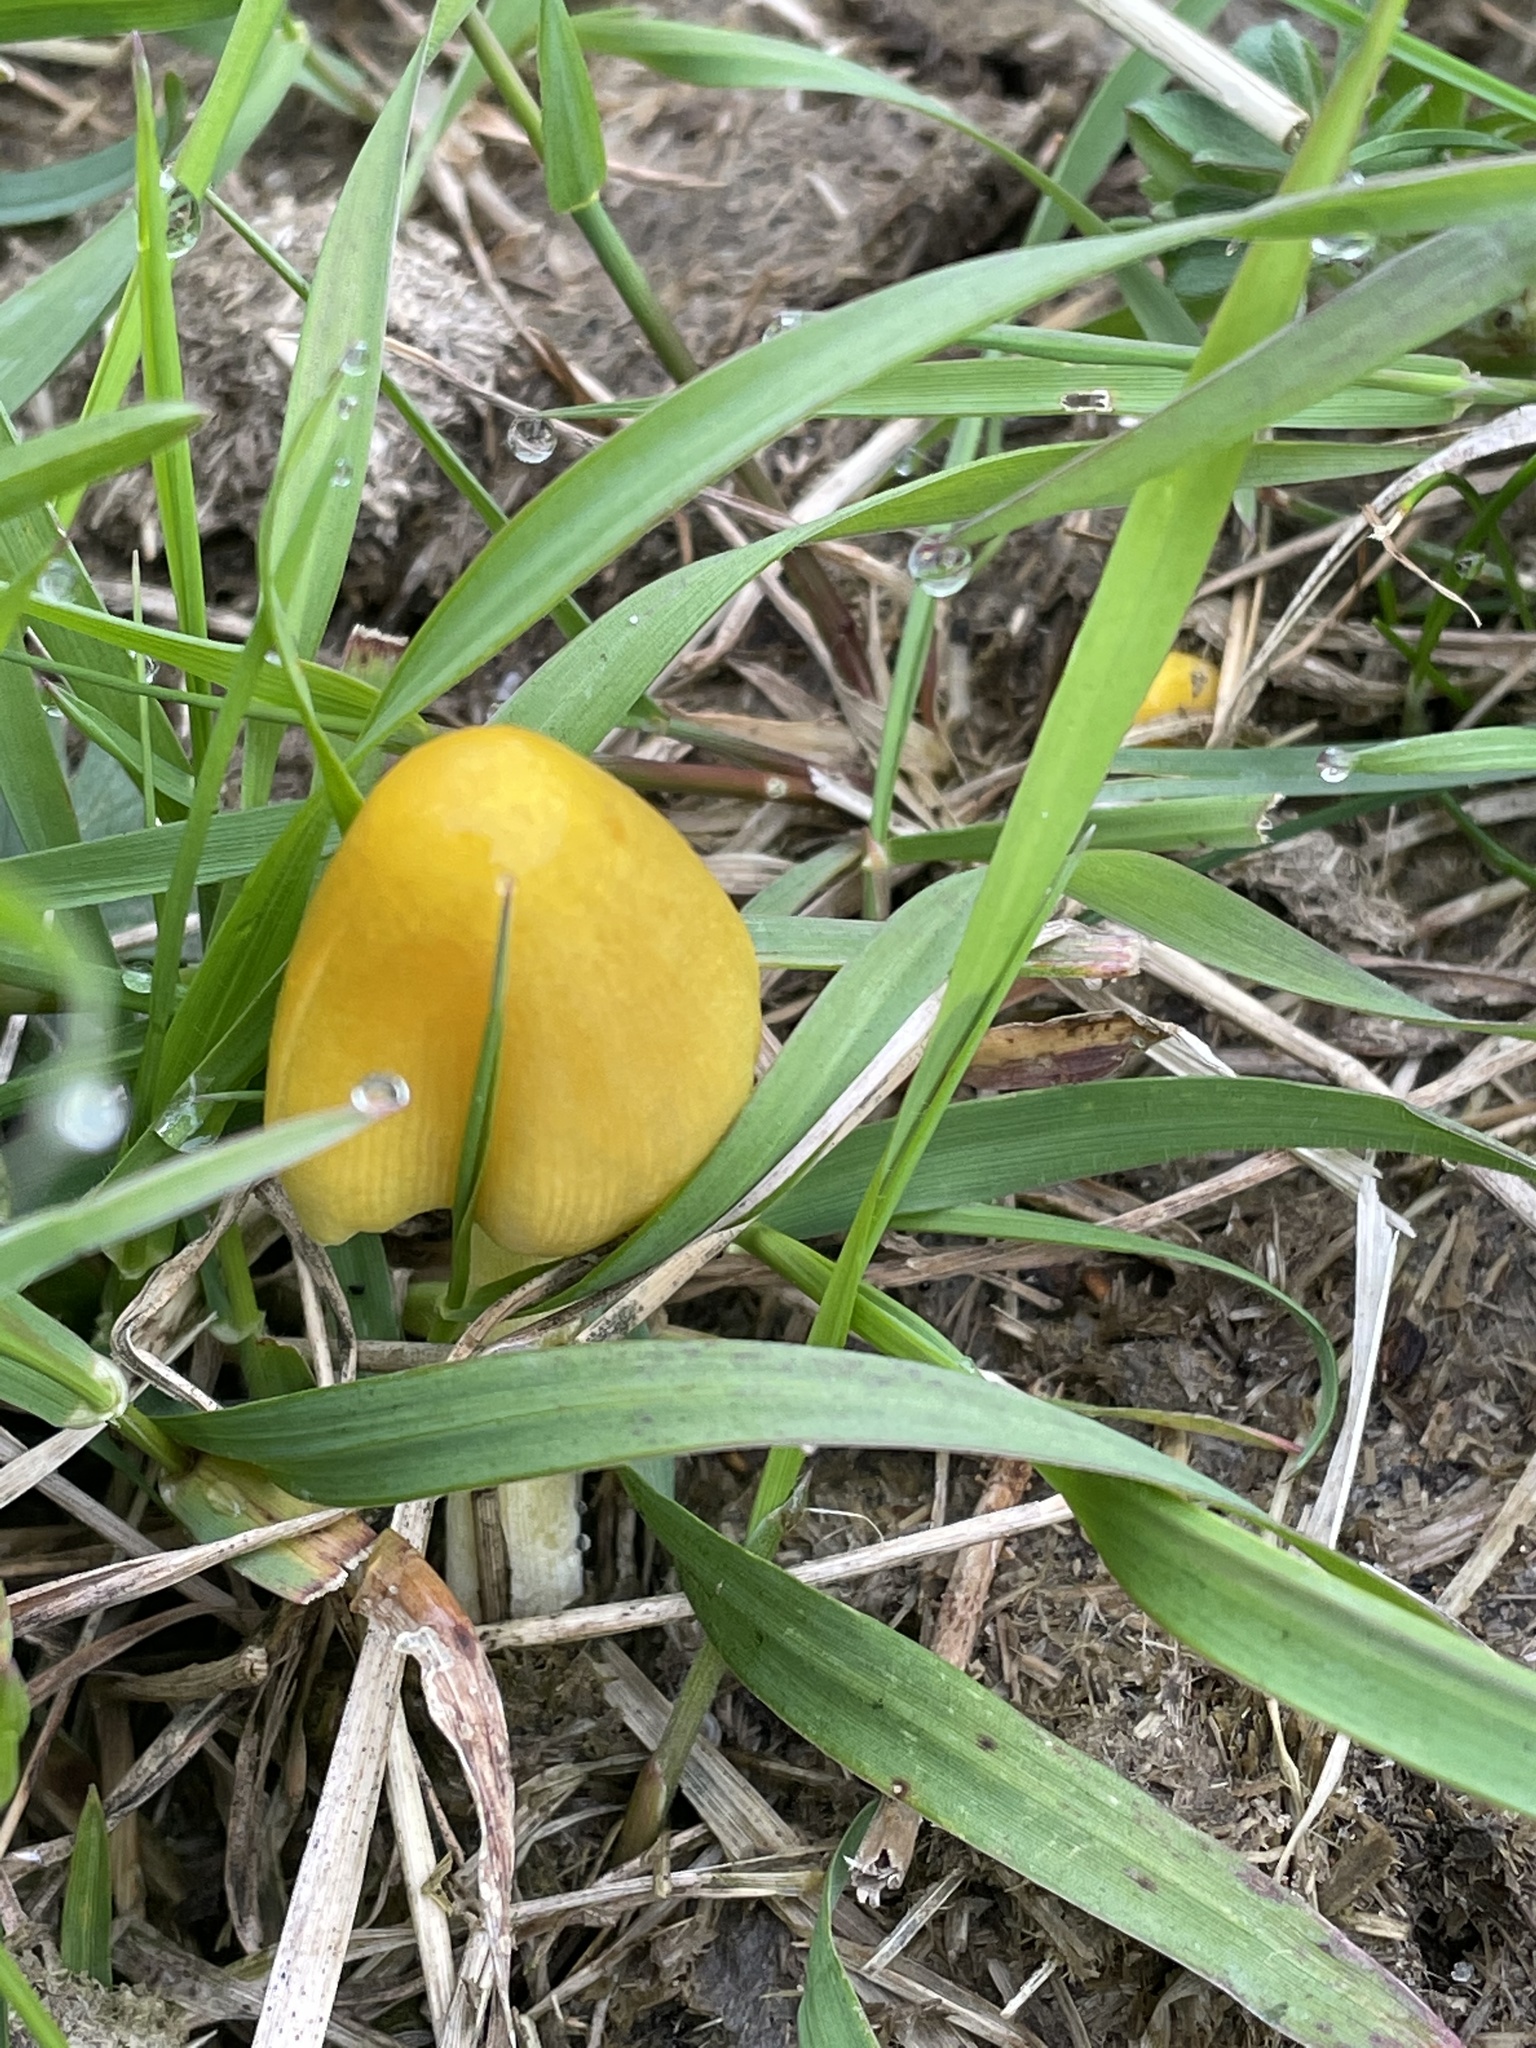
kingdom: Fungi
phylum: Basidiomycota
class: Agaricomycetes
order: Agaricales
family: Bolbitiaceae
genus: Bolbitius
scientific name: Bolbitius titubans
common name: Yellow fieldcap
